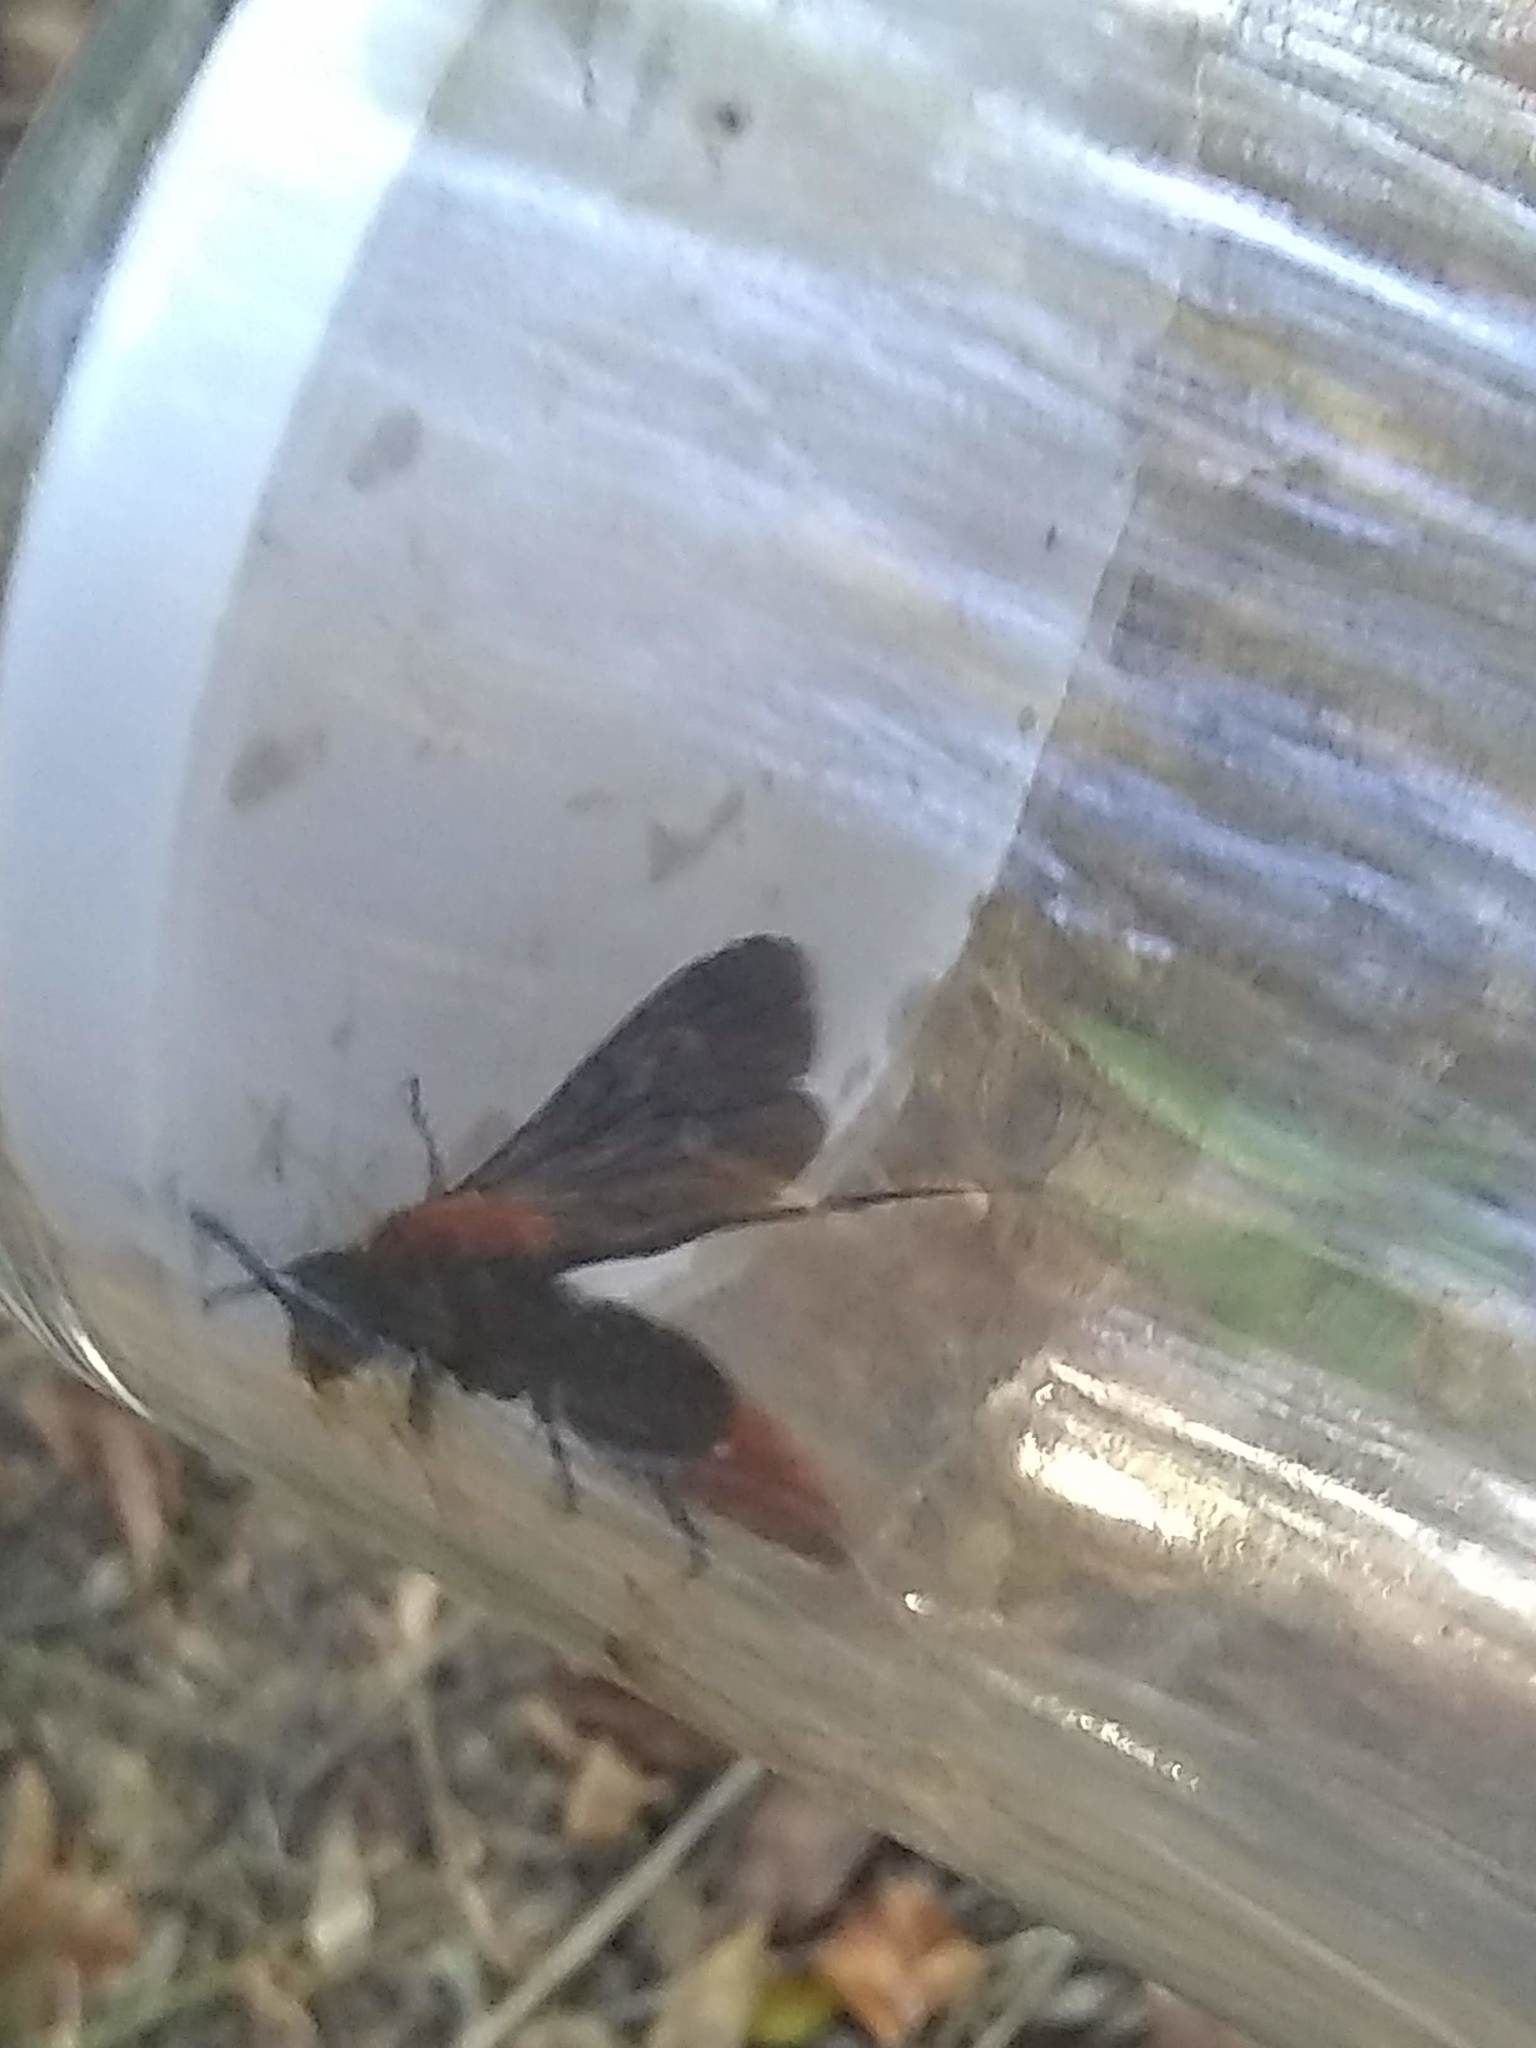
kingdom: Animalia
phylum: Arthropoda
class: Insecta
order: Hymenoptera
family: Mutillidae
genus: Dasymutilla
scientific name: Dasymutilla occidentalis
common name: Common eastern velvet ant
